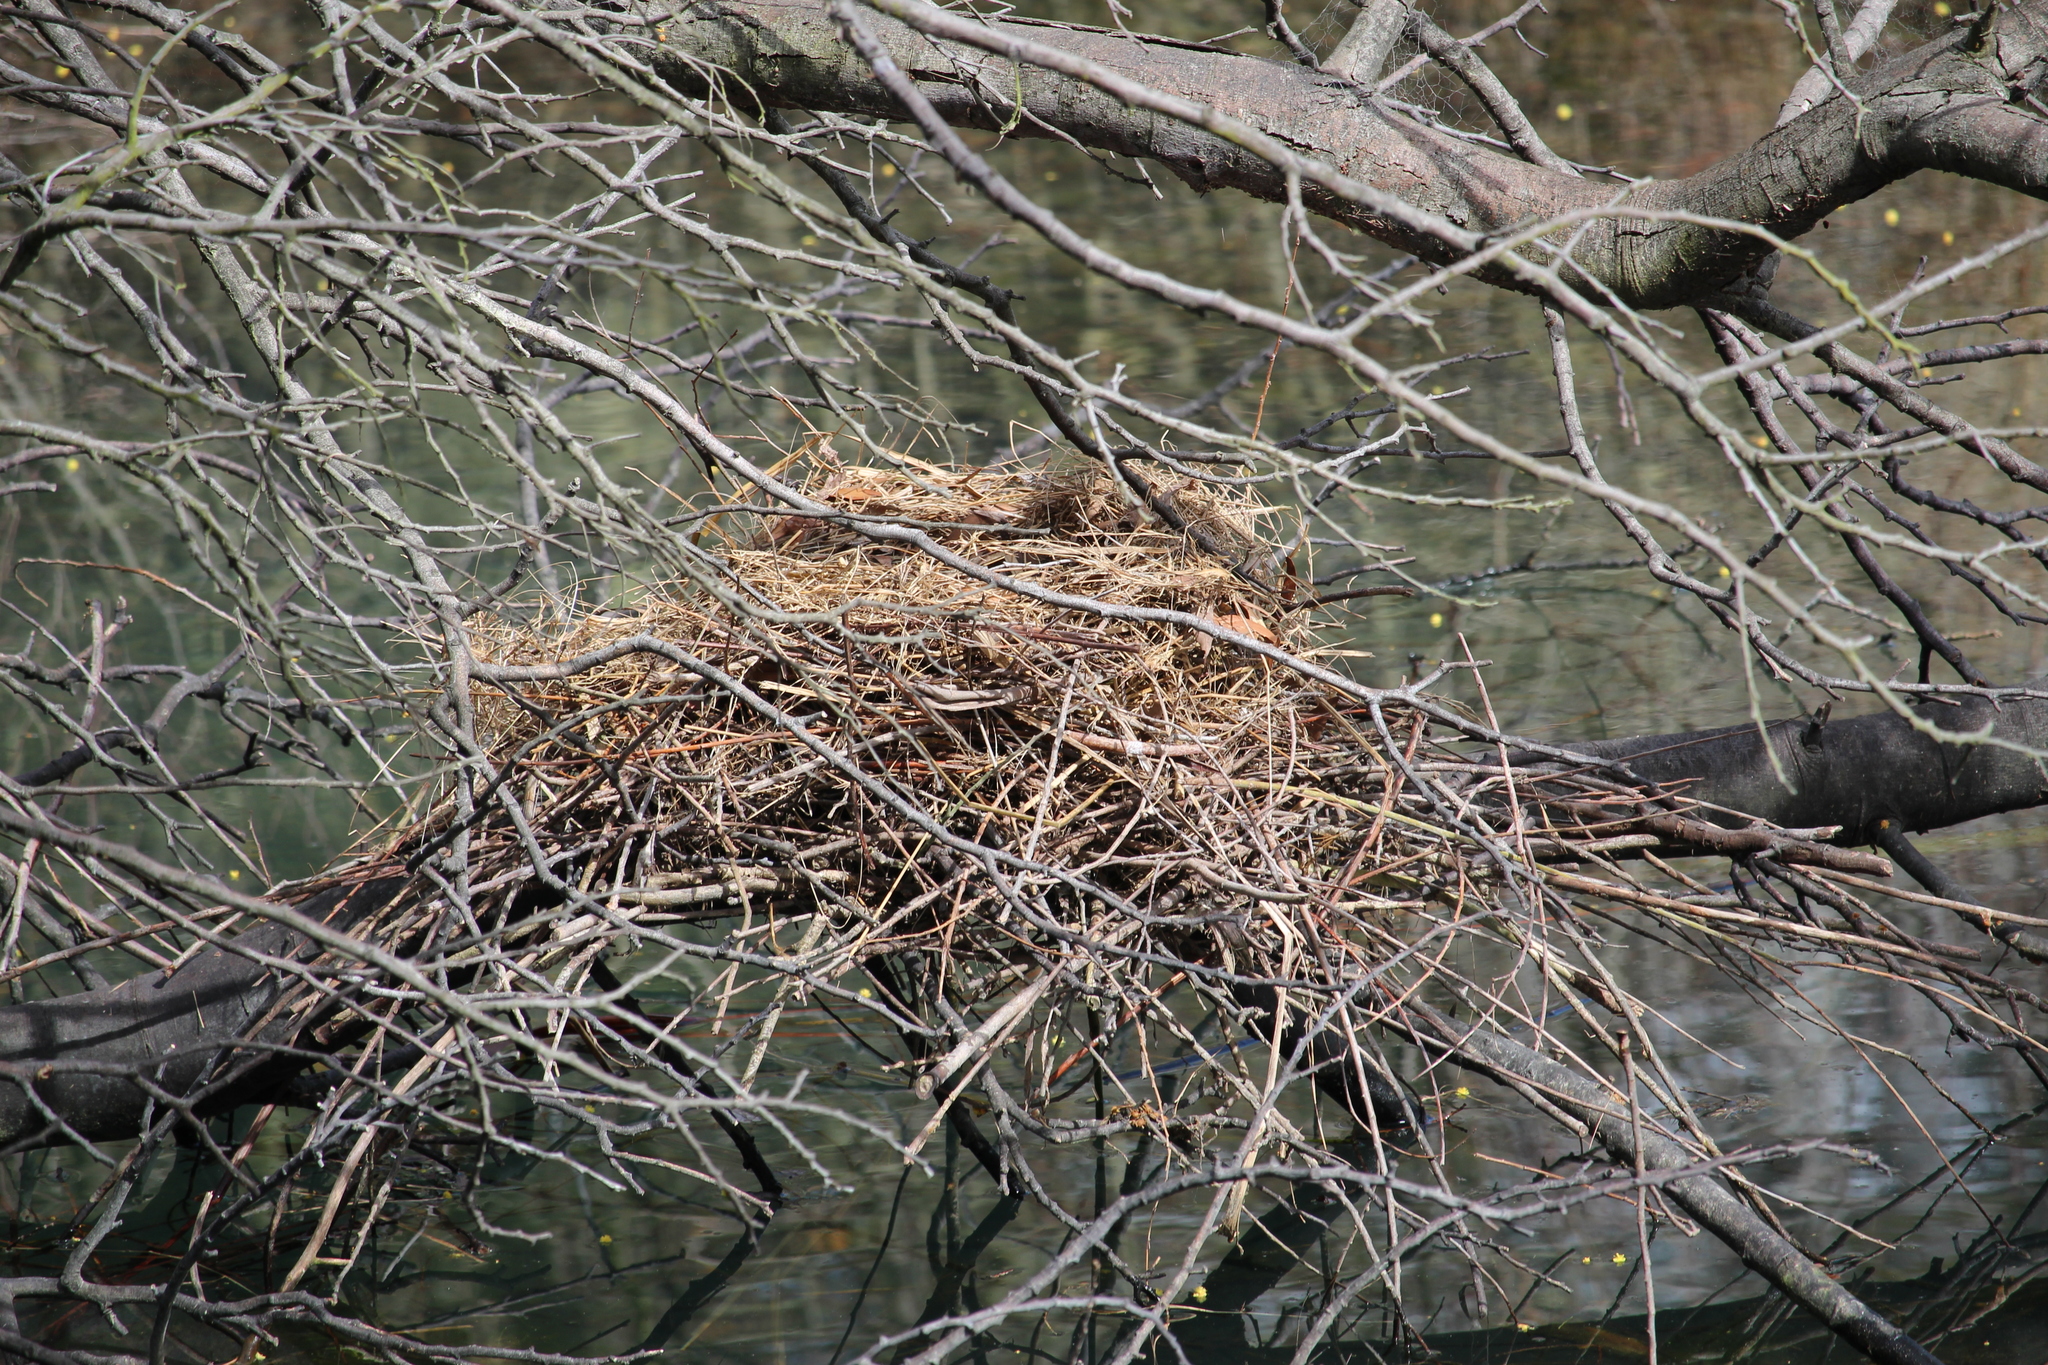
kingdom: Animalia
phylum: Chordata
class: Aves
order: Gruiformes
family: Rallidae
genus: Fulica
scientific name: Fulica atra
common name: Eurasian coot
